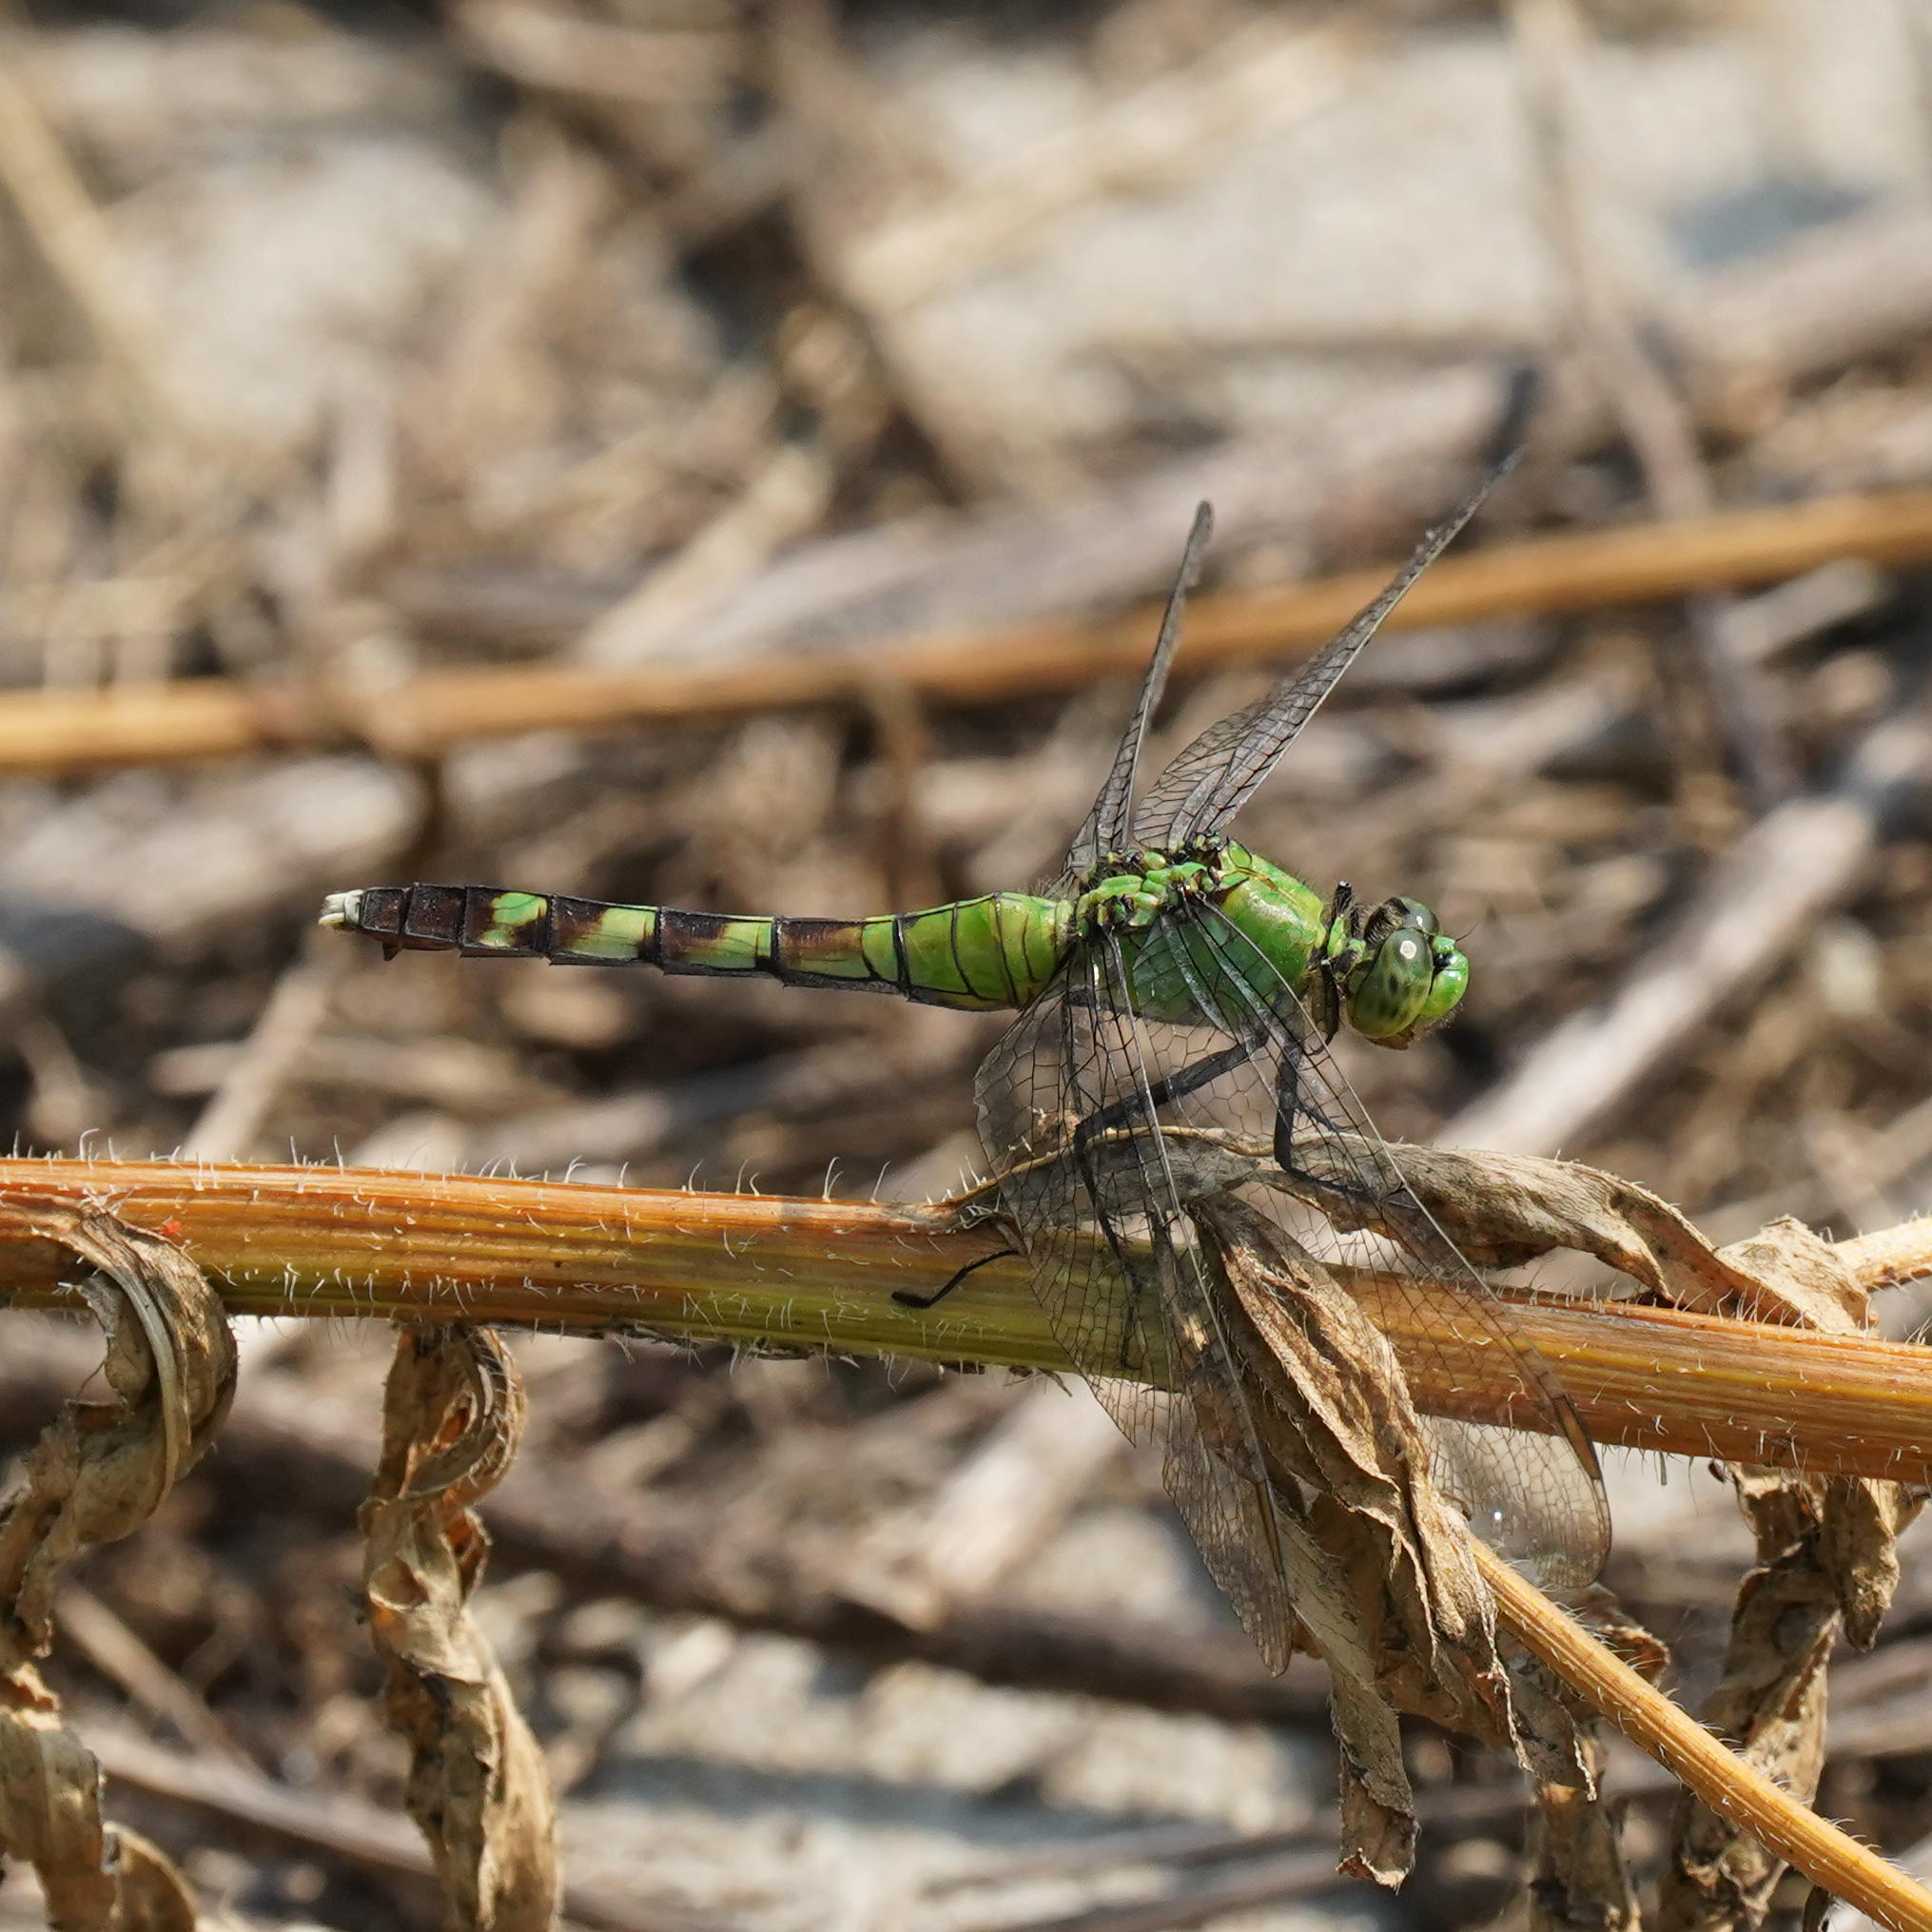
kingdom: Animalia
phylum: Arthropoda
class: Insecta
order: Odonata
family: Libellulidae
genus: Erythemis
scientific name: Erythemis simplicicollis
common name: Eastern pondhawk
